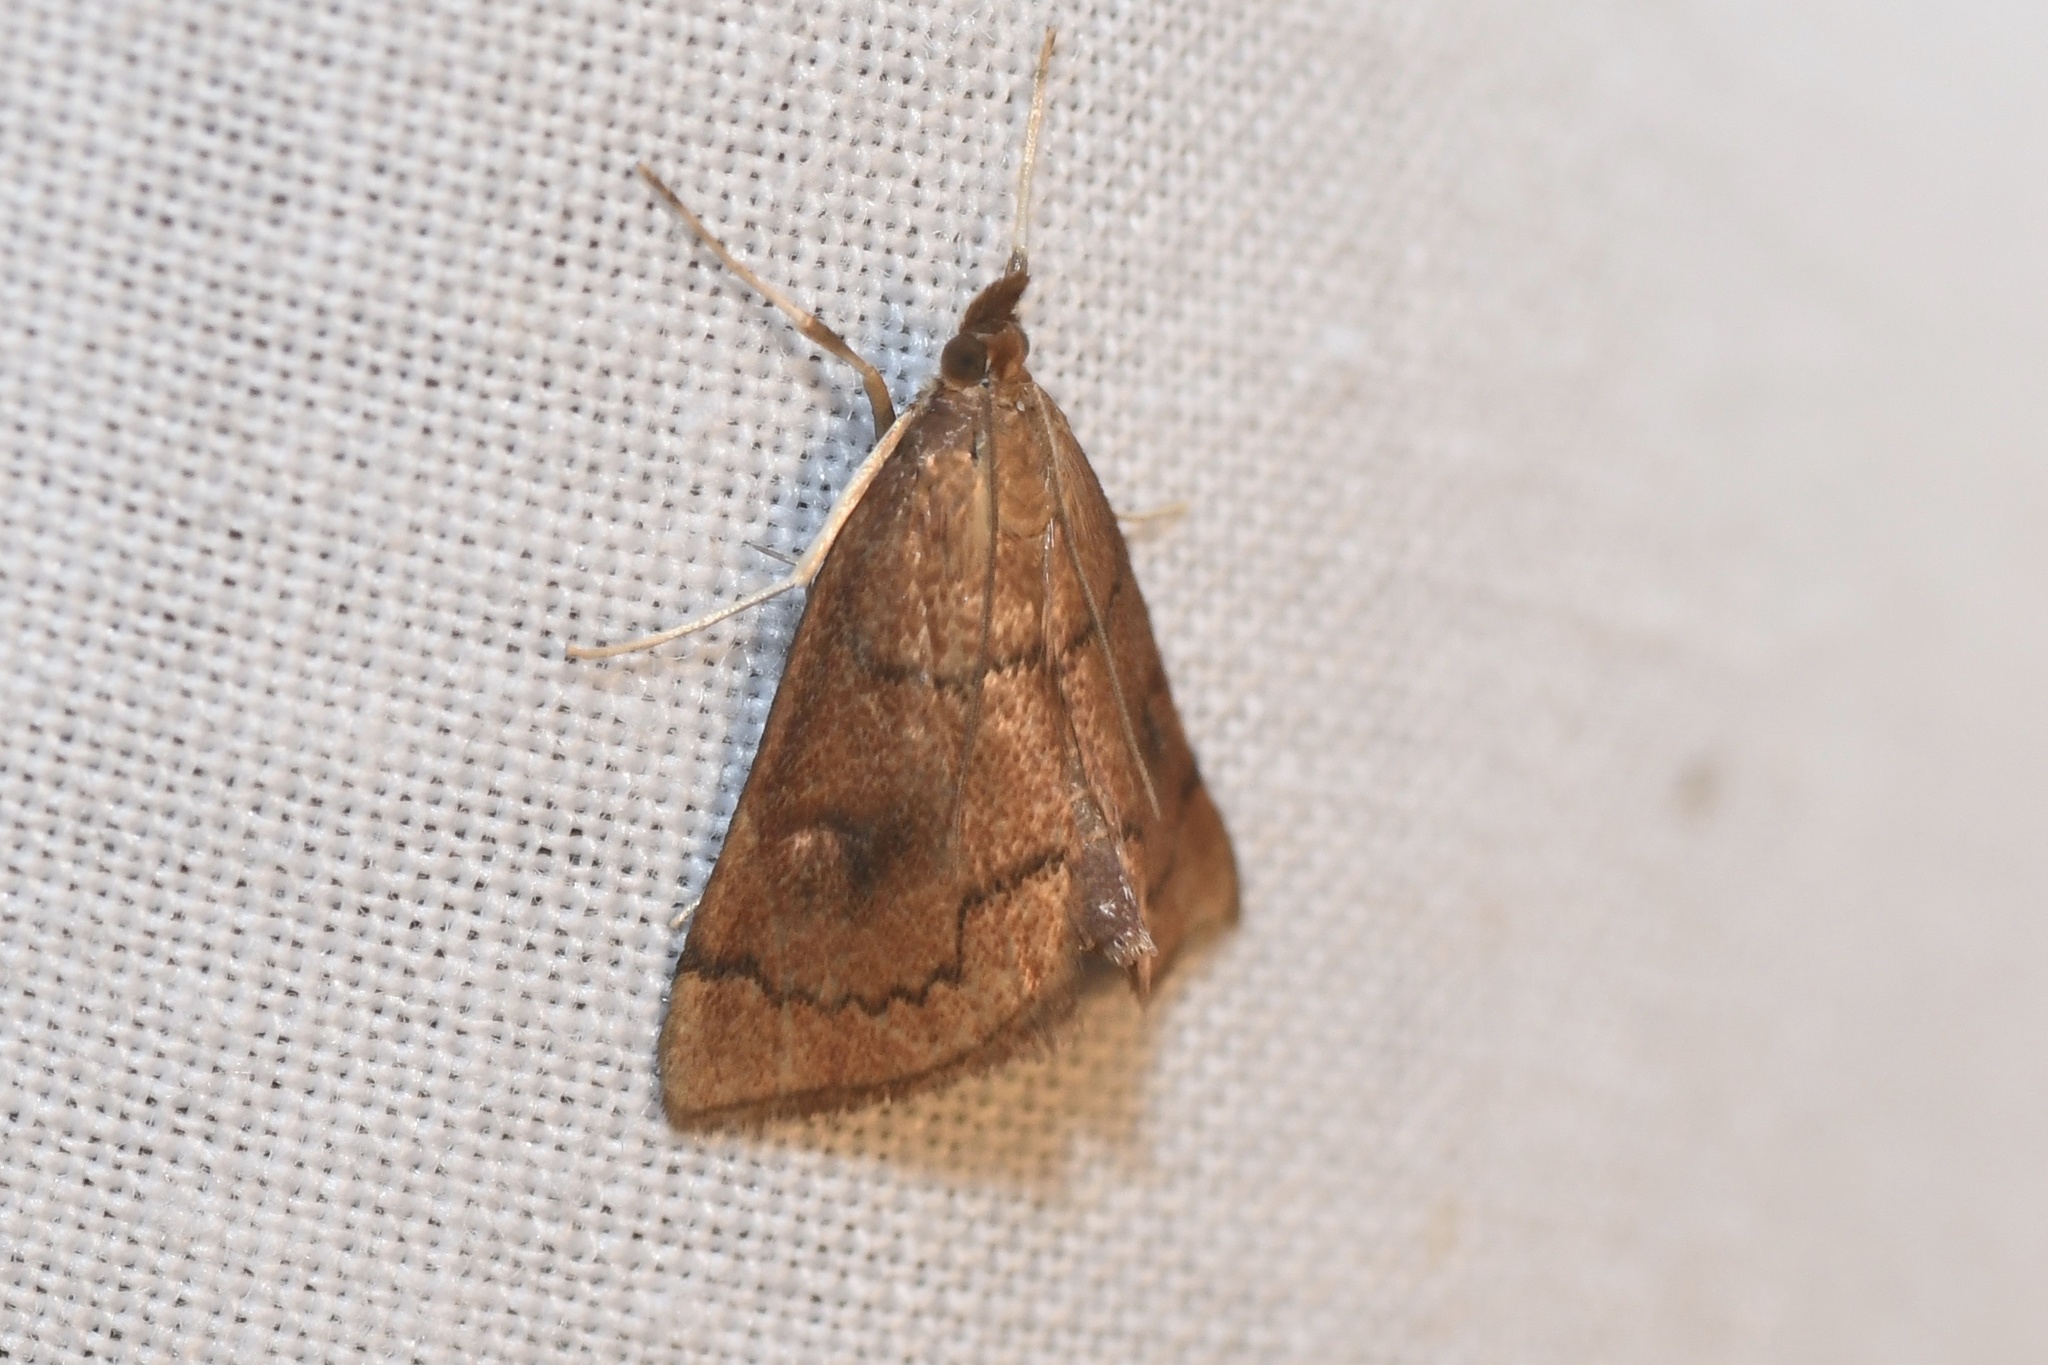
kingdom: Animalia
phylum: Arthropoda
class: Insecta
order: Lepidoptera
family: Crambidae
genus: Fumibotys
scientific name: Fumibotys fumalis
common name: Mint root borer moth
